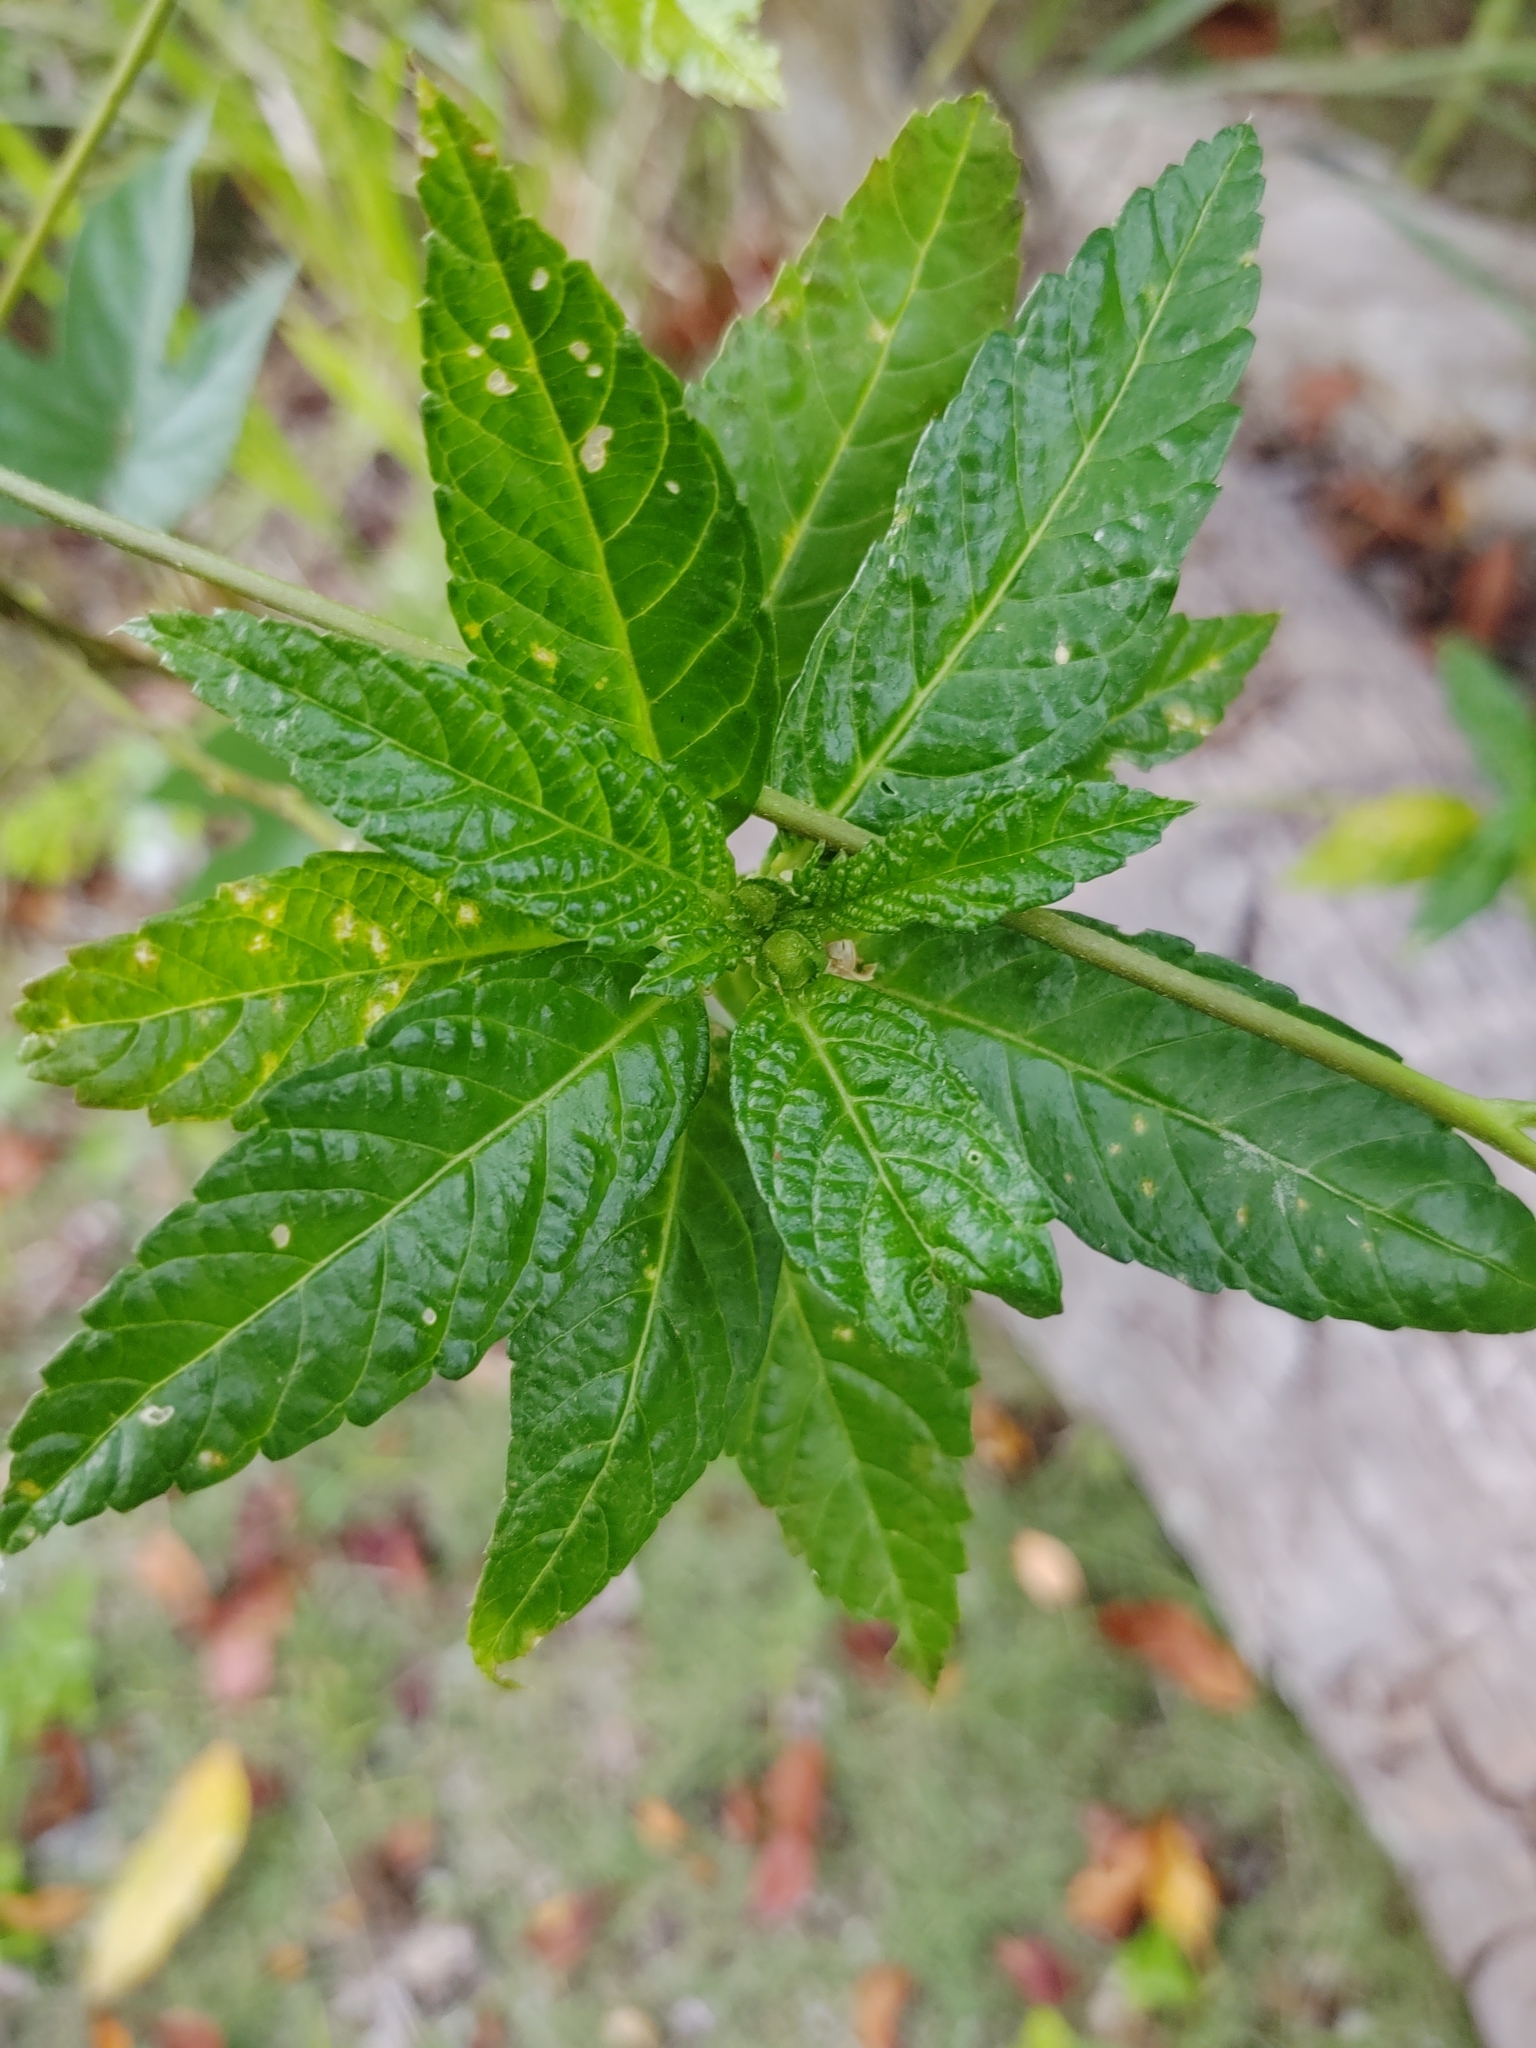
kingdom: Plantae
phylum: Tracheophyta
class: Magnoliopsida
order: Malpighiales
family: Turneraceae
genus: Turnera
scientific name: Turnera ulmifolia
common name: Ramgoat dashalong
